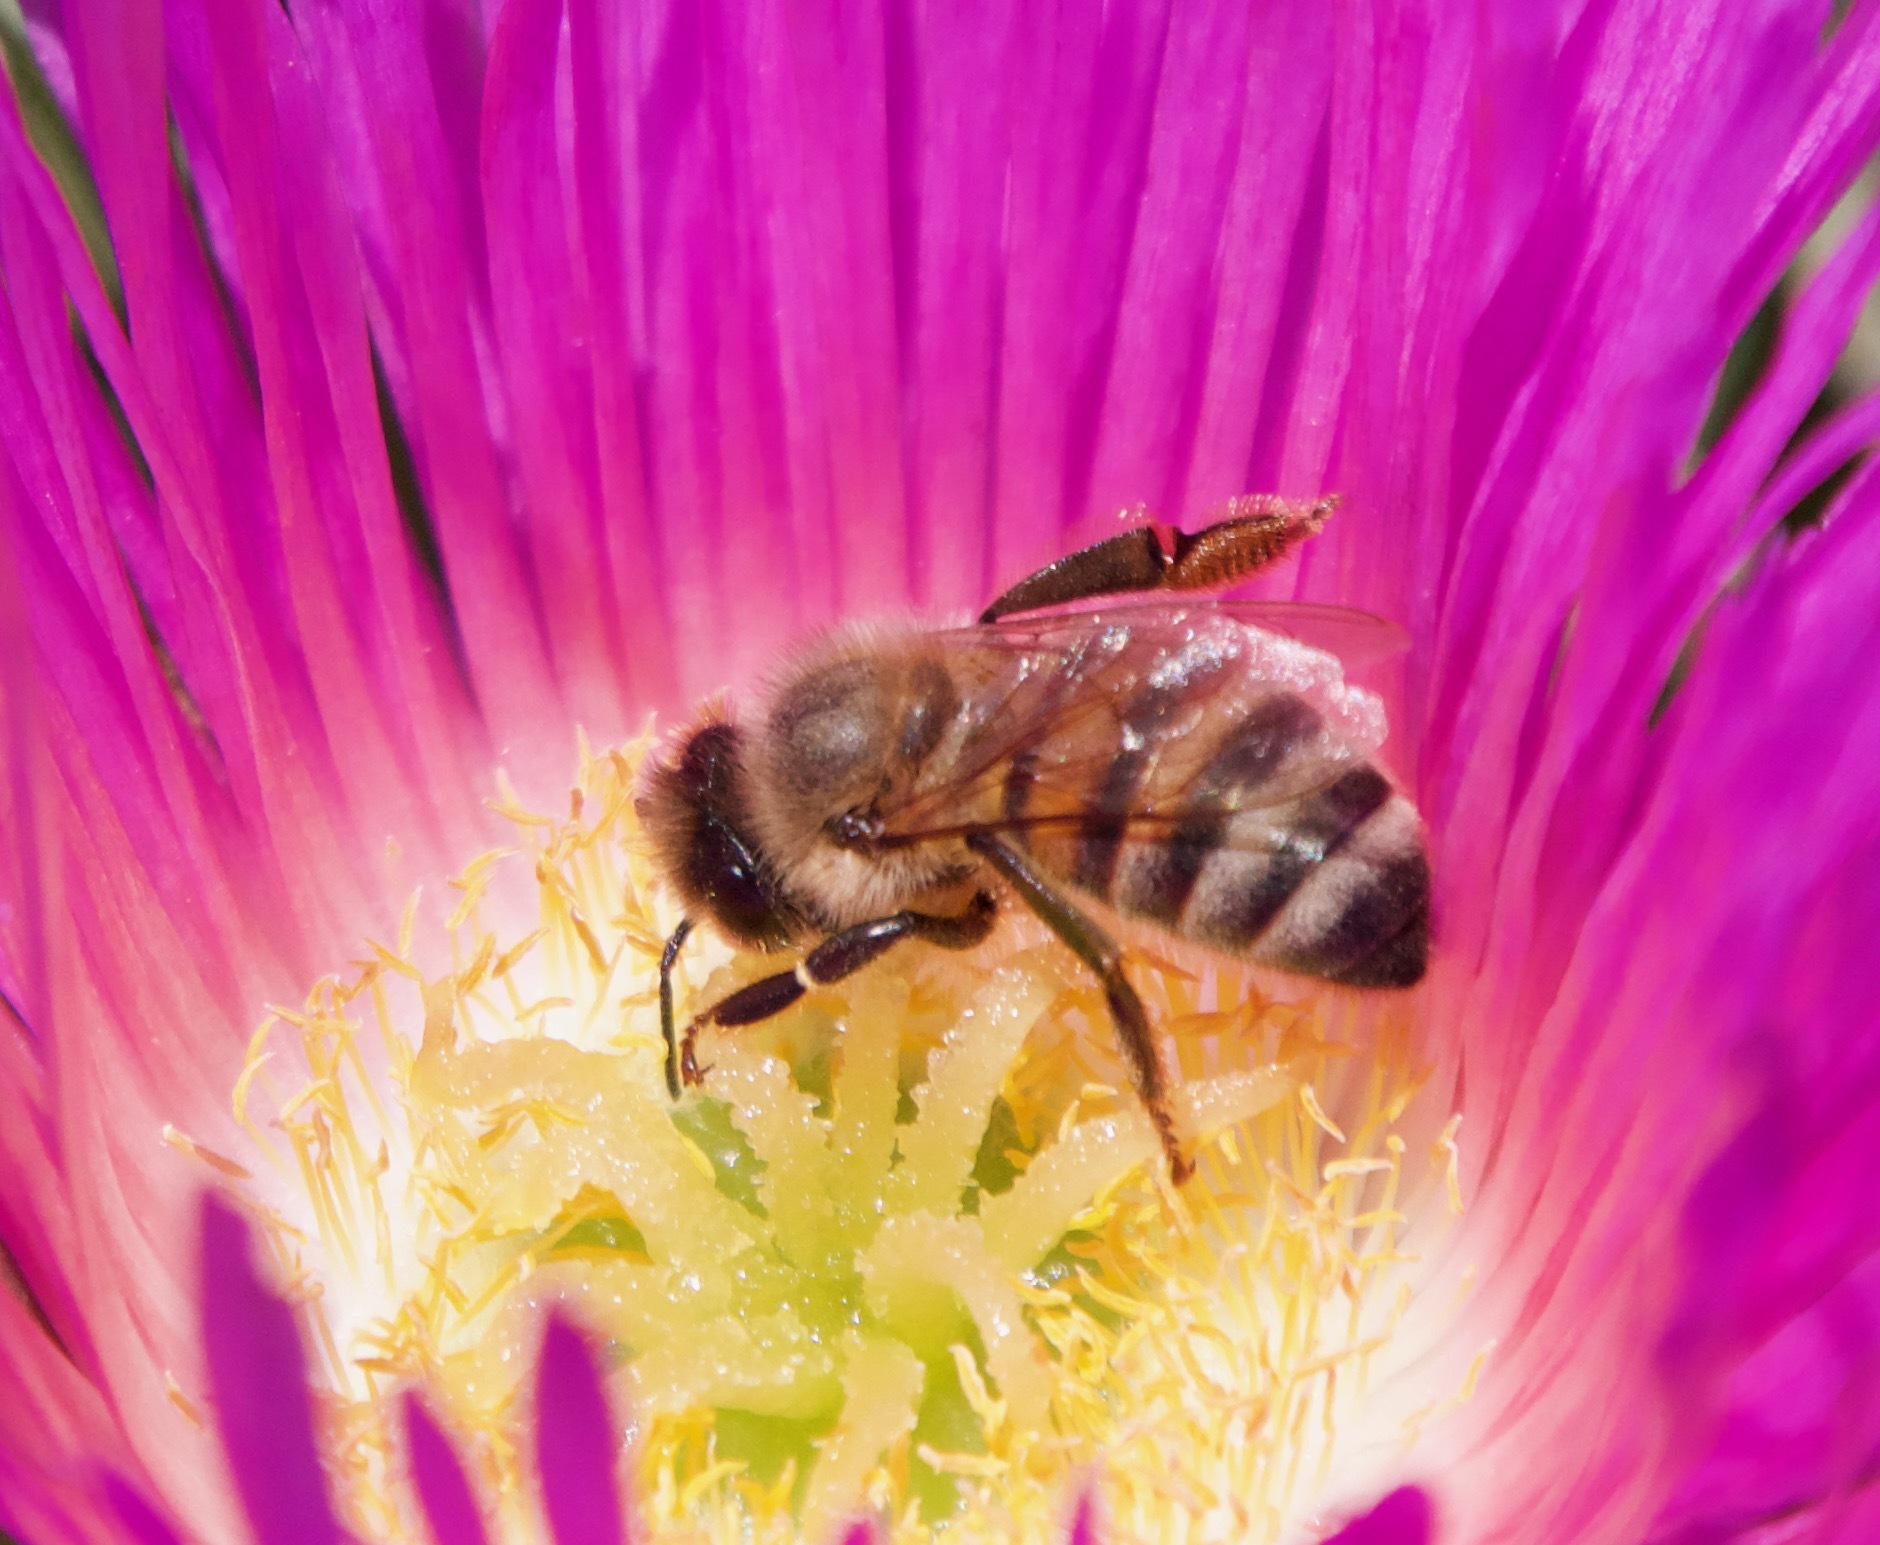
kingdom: Animalia
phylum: Arthropoda
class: Insecta
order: Hymenoptera
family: Apidae
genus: Apis
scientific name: Apis mellifera
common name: Honey bee
